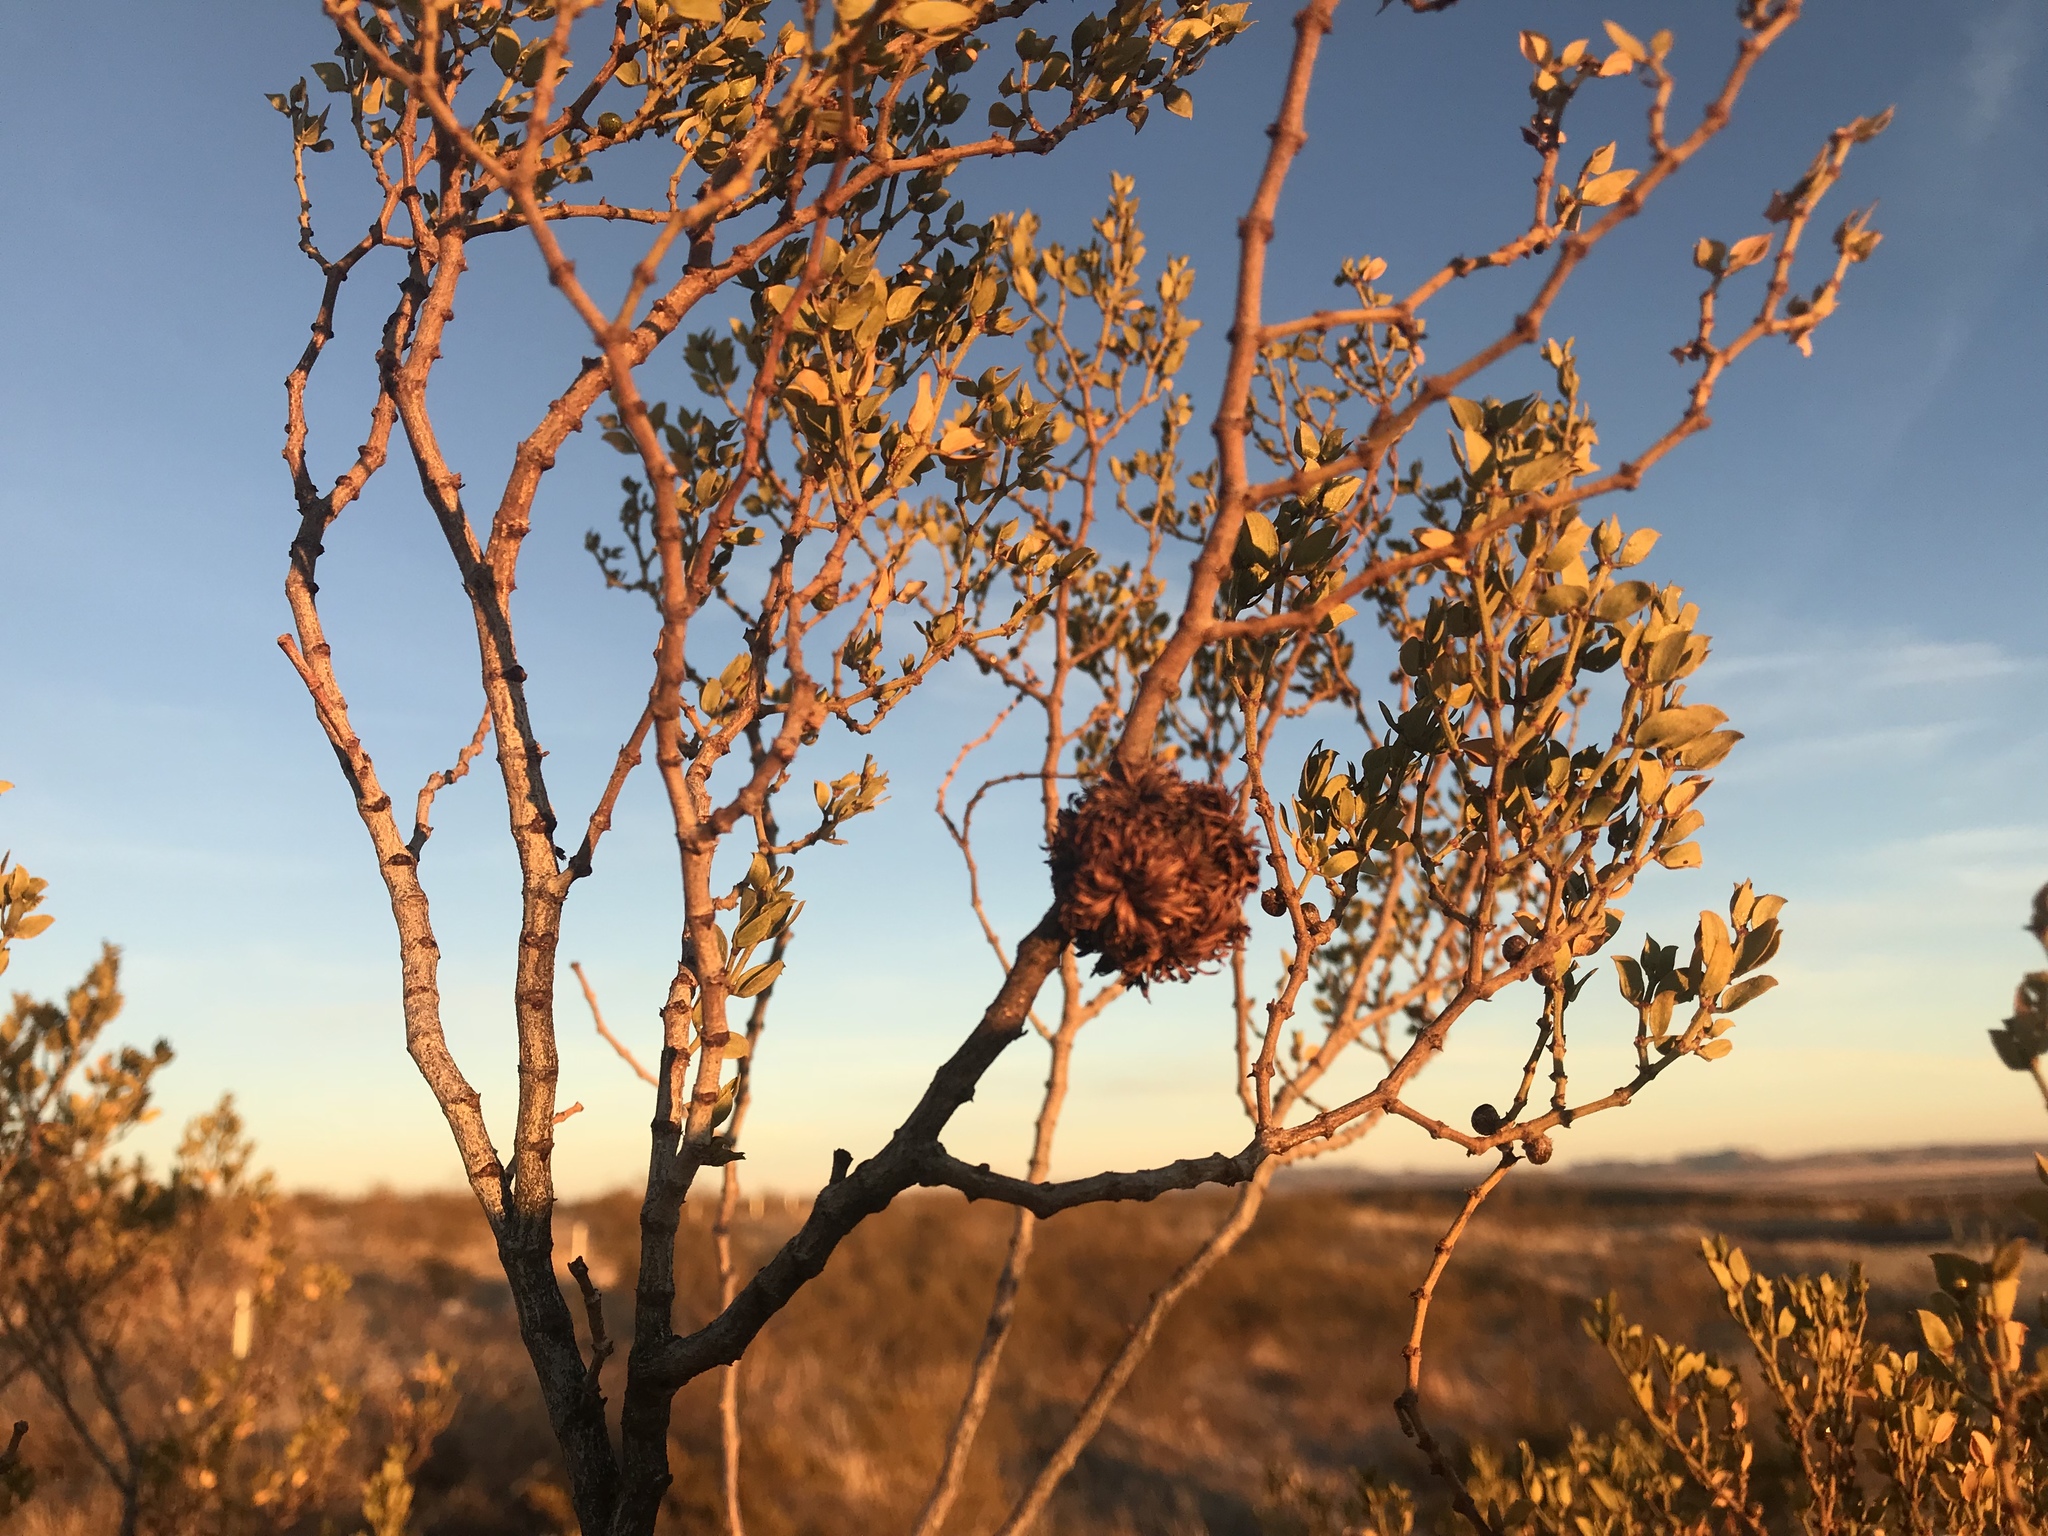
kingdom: Animalia
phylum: Arthropoda
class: Insecta
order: Diptera
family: Cecidomyiidae
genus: Asphondylia
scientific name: Asphondylia auripila
